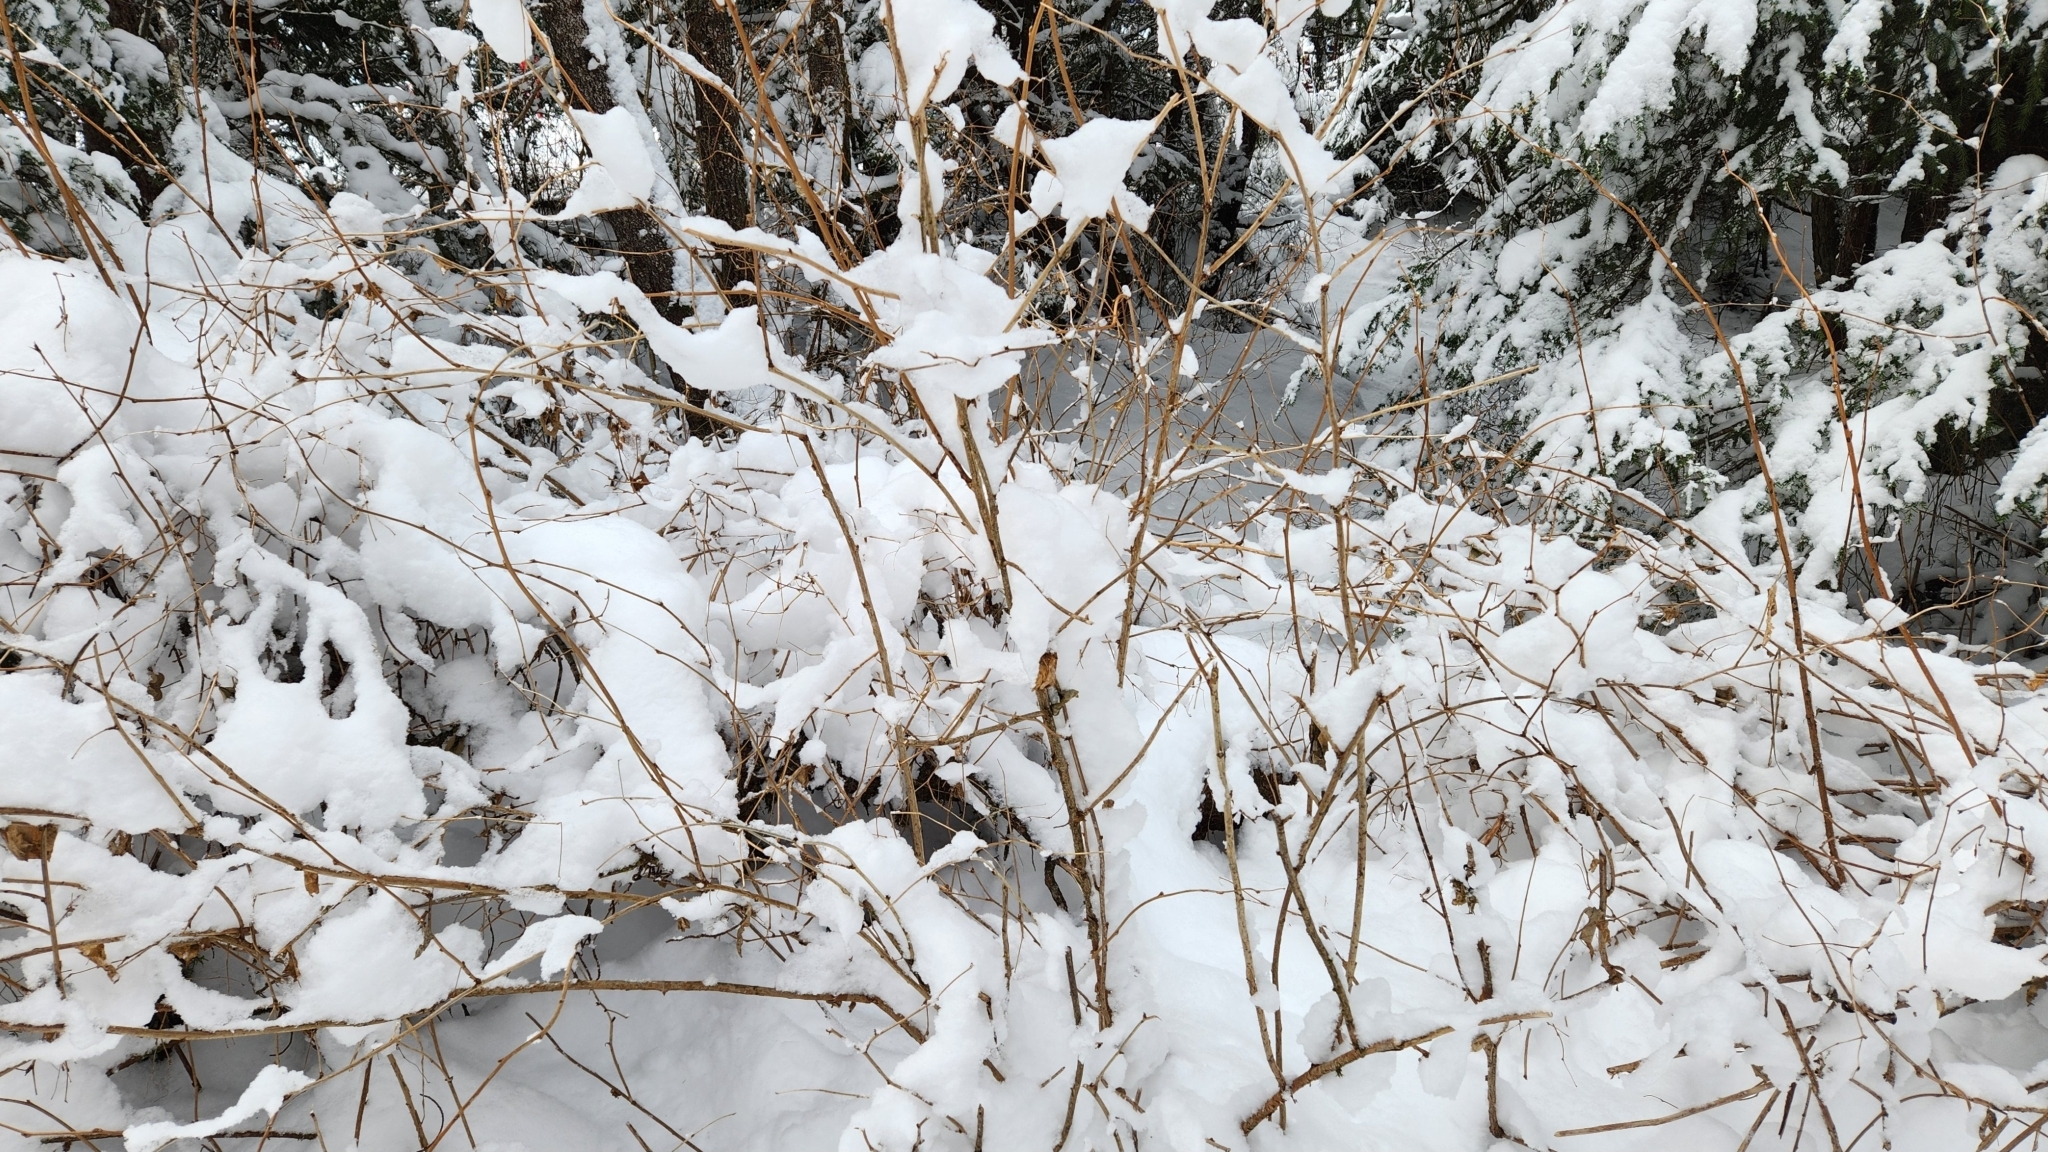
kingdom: Plantae
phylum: Tracheophyta
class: Magnoliopsida
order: Rosales
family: Rosaceae
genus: Rubus
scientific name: Rubus spectabilis
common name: Salmonberry
